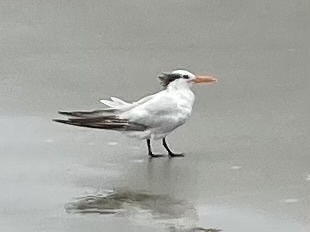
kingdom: Animalia
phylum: Chordata
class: Aves
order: Charadriiformes
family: Laridae
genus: Thalasseus
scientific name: Thalasseus maximus
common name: Royal tern
